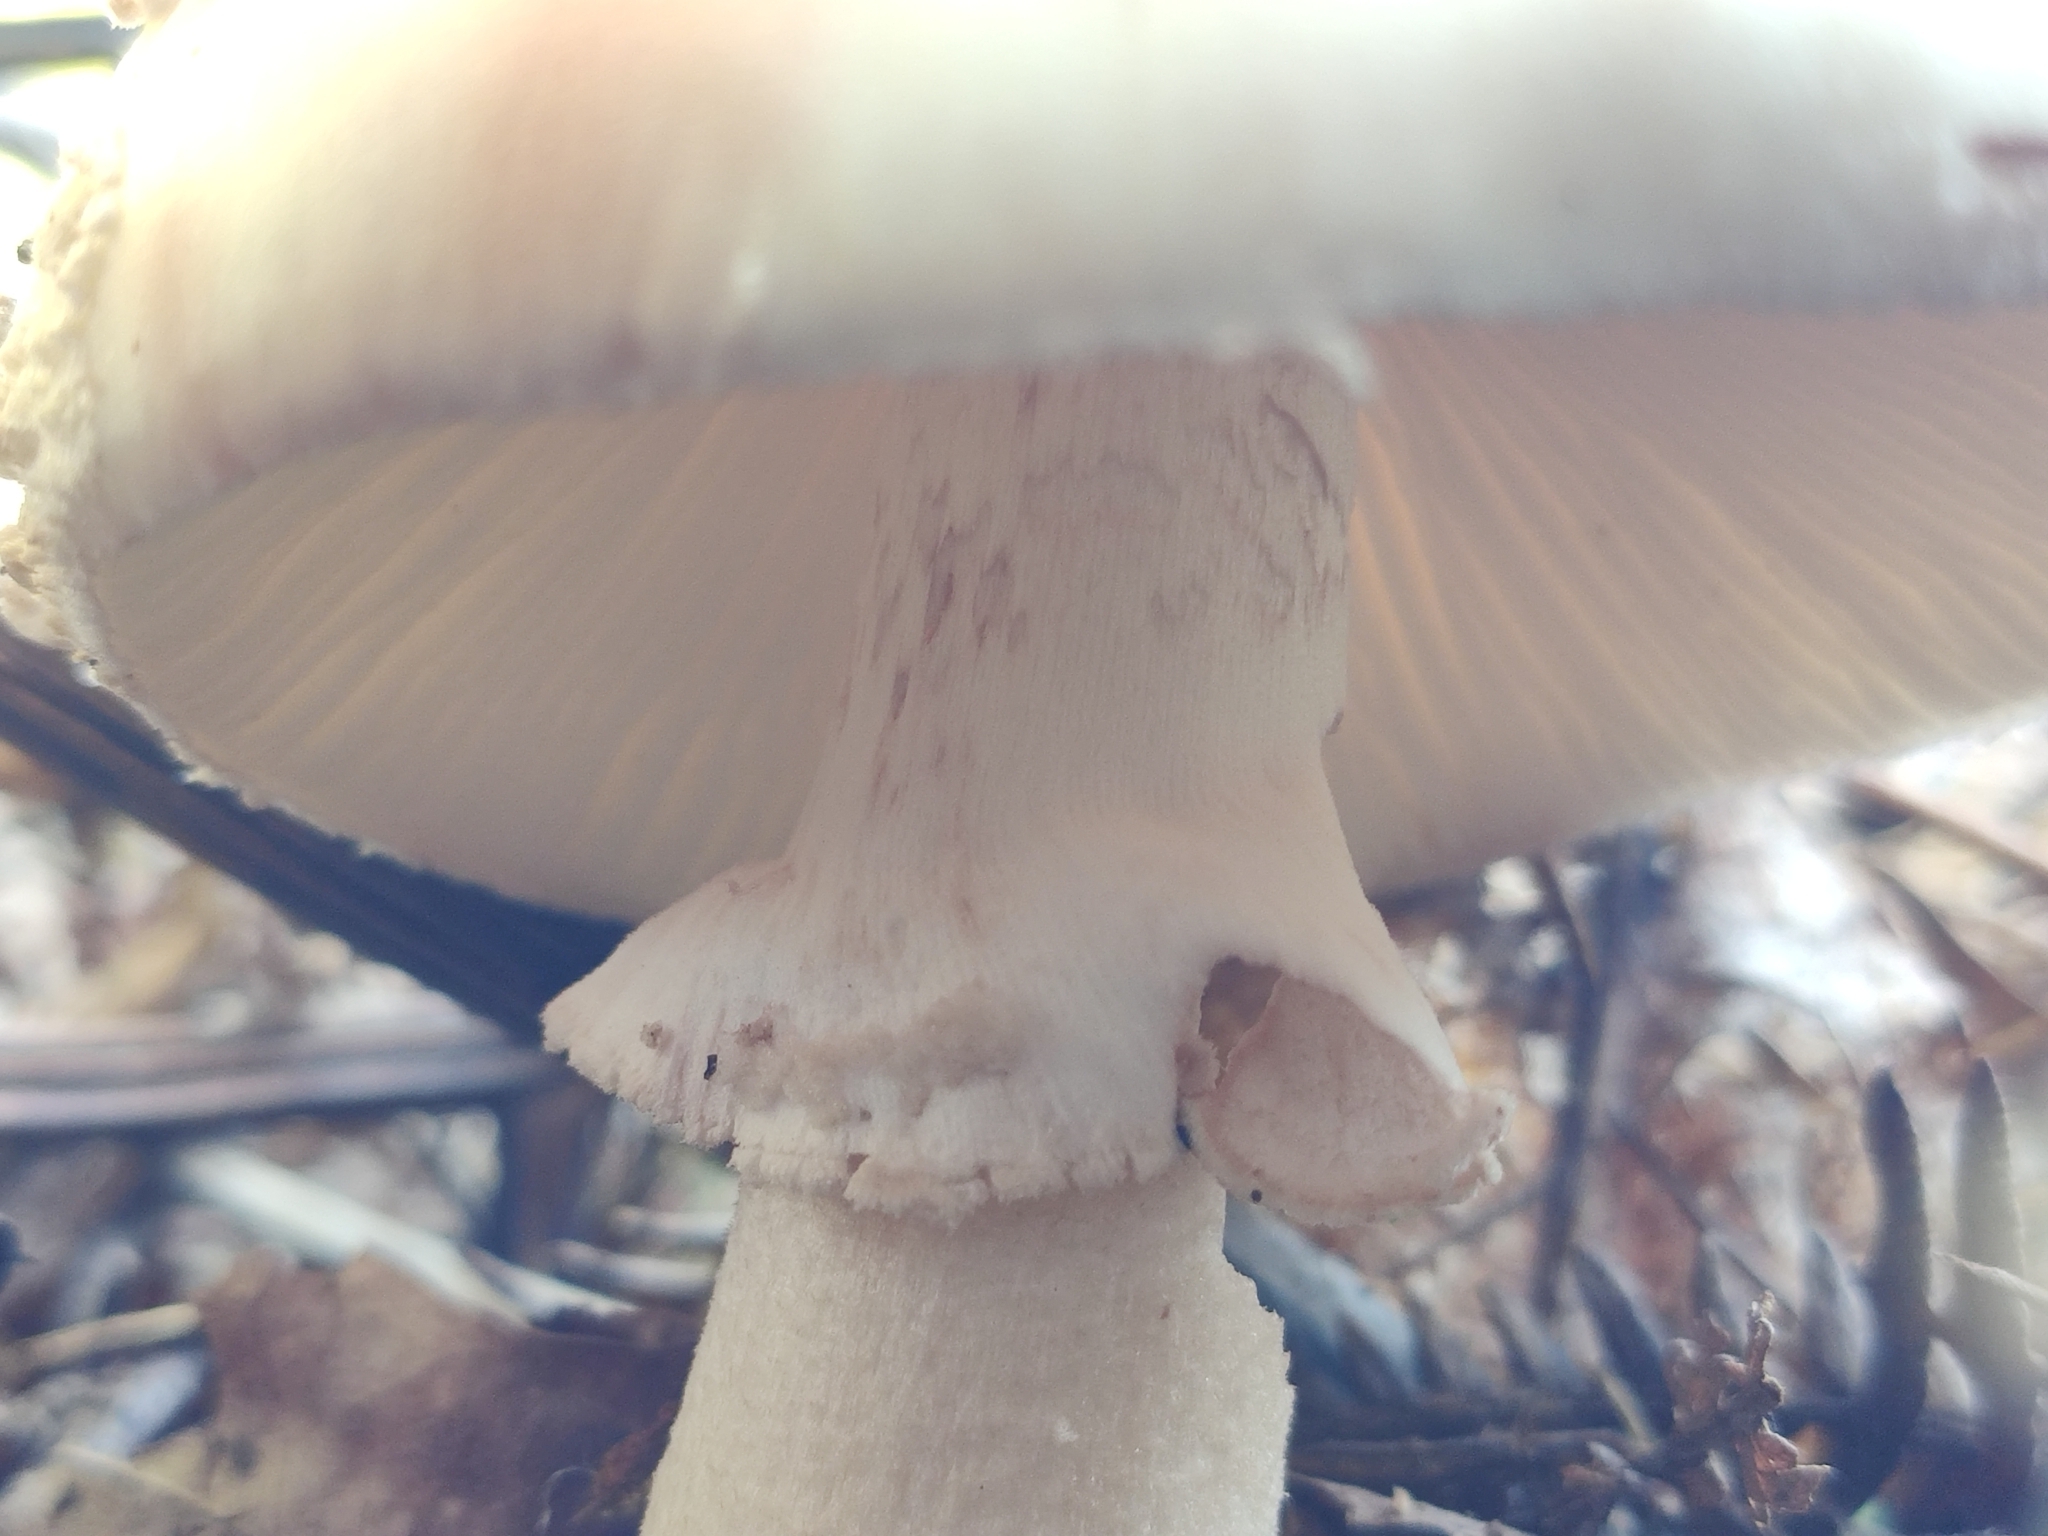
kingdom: Fungi
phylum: Basidiomycota
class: Agaricomycetes
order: Agaricales
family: Amanitaceae
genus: Amanita
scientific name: Amanita rubescens
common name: Blusher
